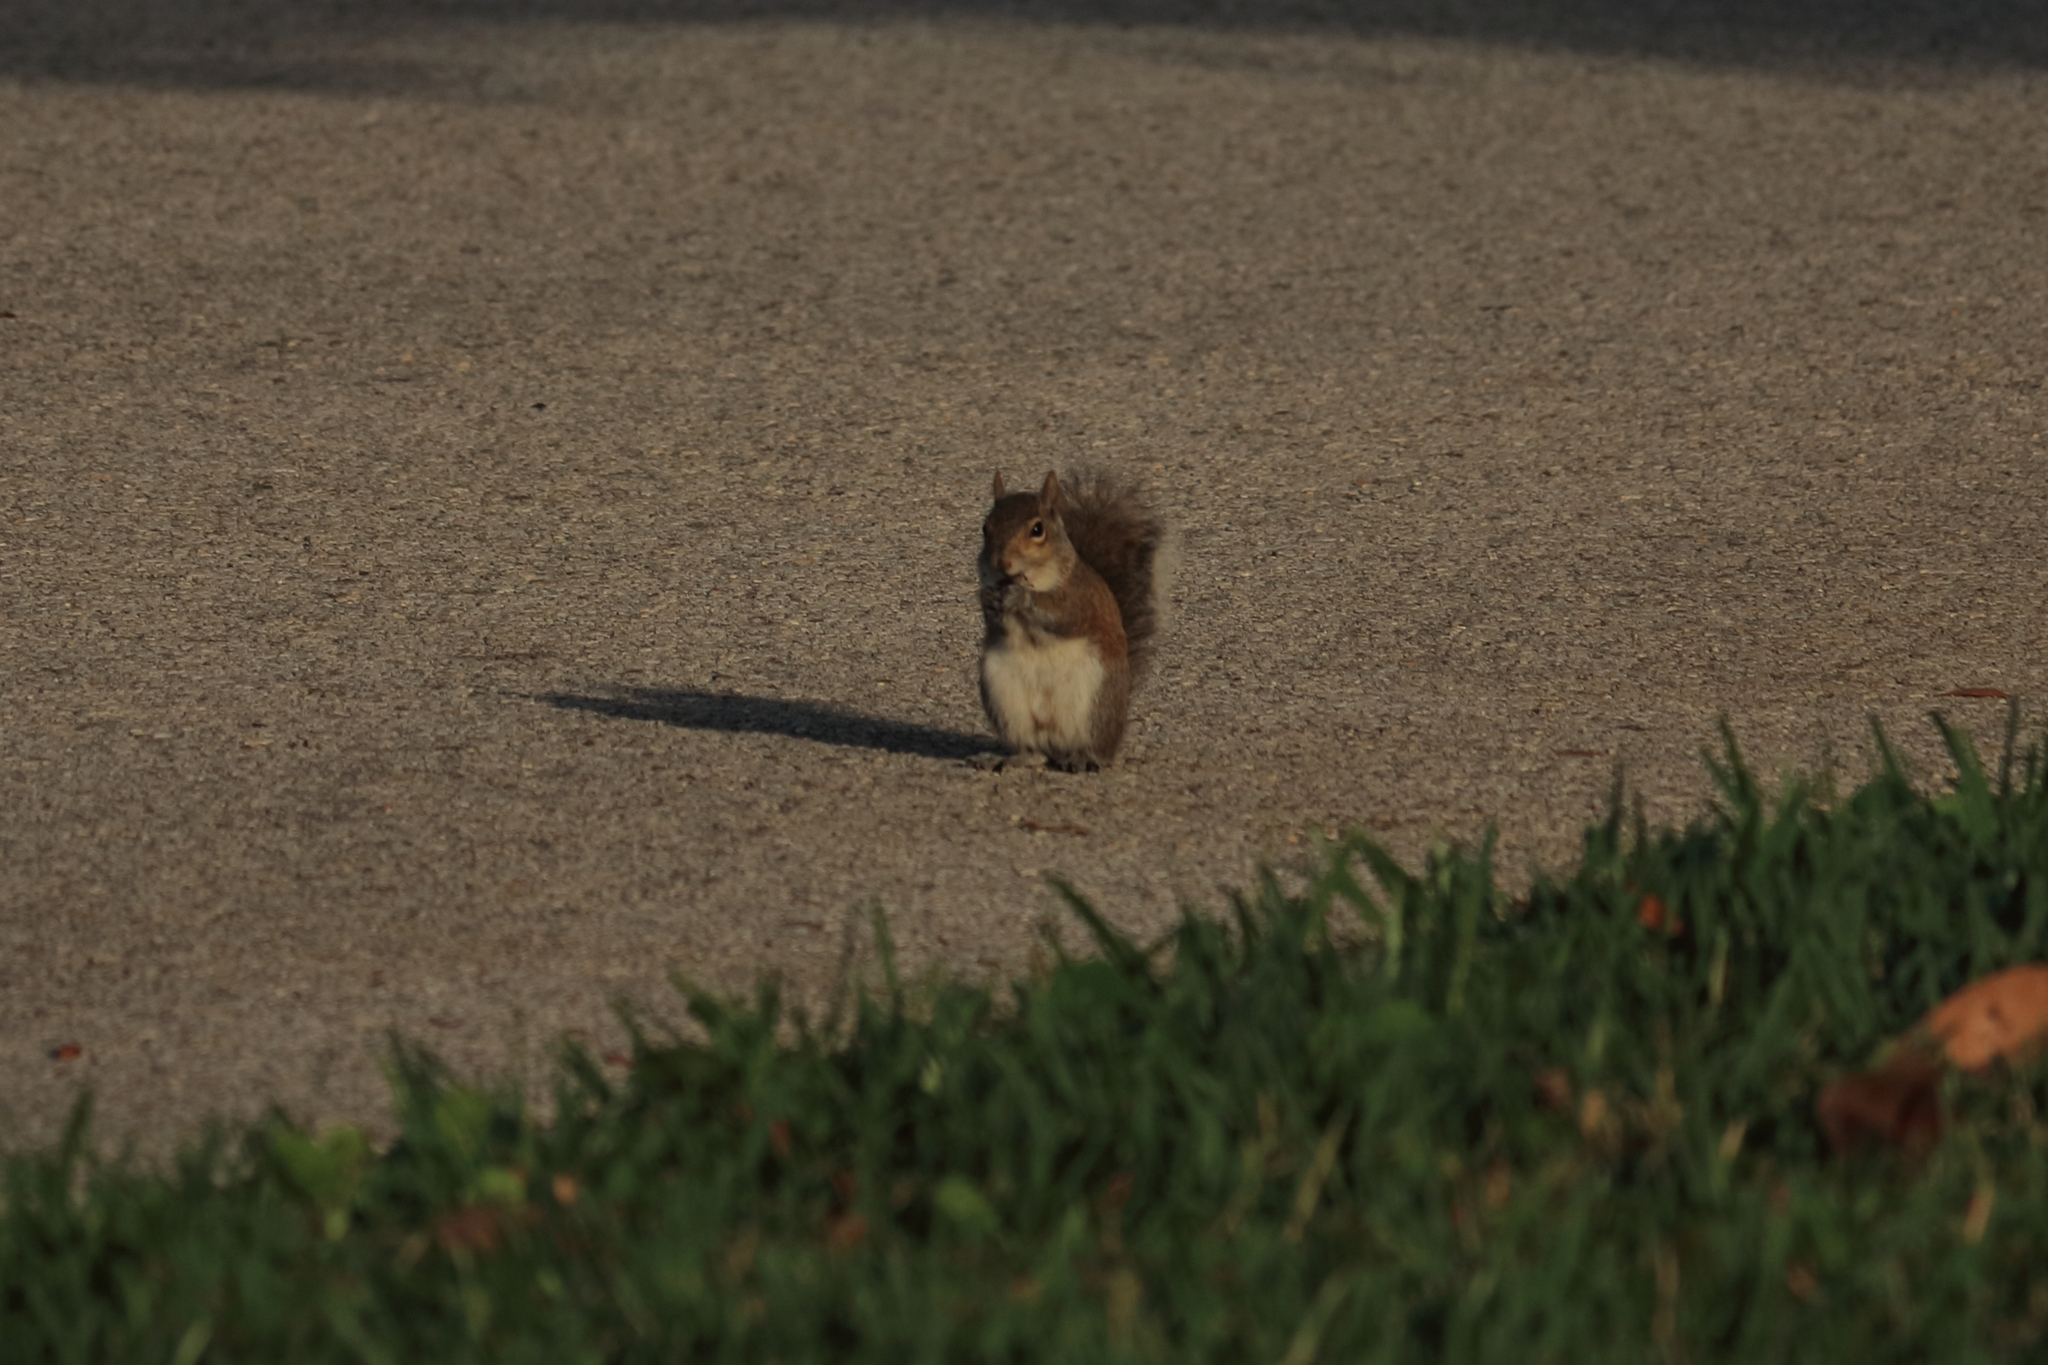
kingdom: Animalia
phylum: Chordata
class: Mammalia
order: Rodentia
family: Sciuridae
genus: Sciurus
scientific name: Sciurus carolinensis
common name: Eastern gray squirrel
